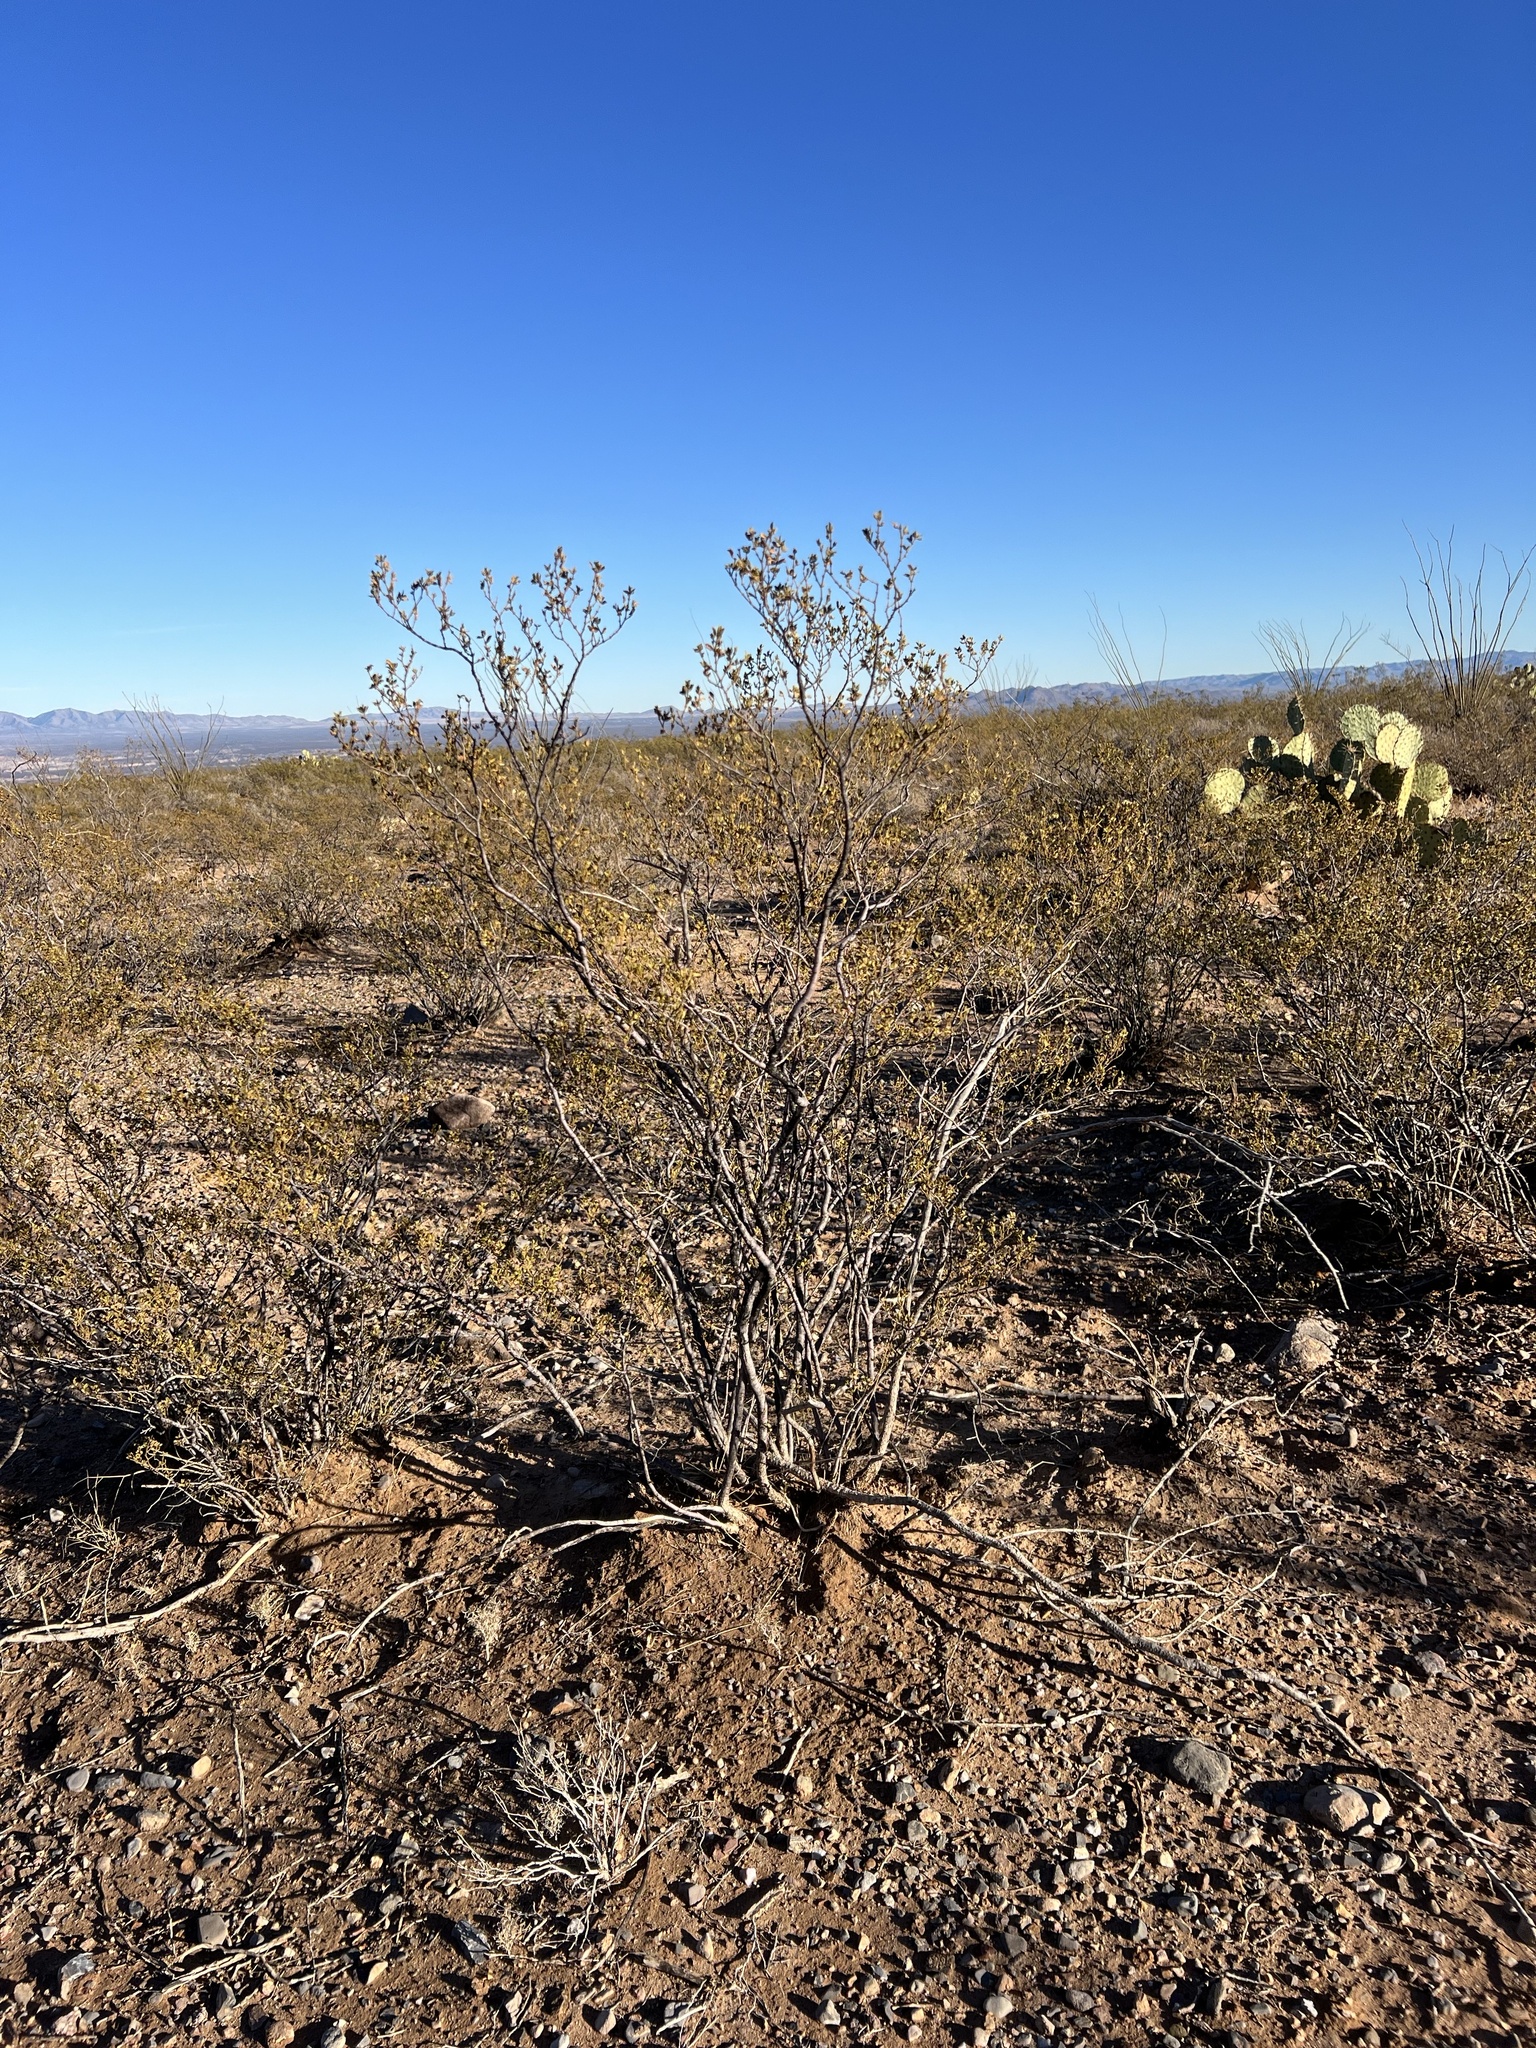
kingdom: Plantae
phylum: Tracheophyta
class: Magnoliopsida
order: Zygophyllales
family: Zygophyllaceae
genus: Larrea
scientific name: Larrea tridentata
